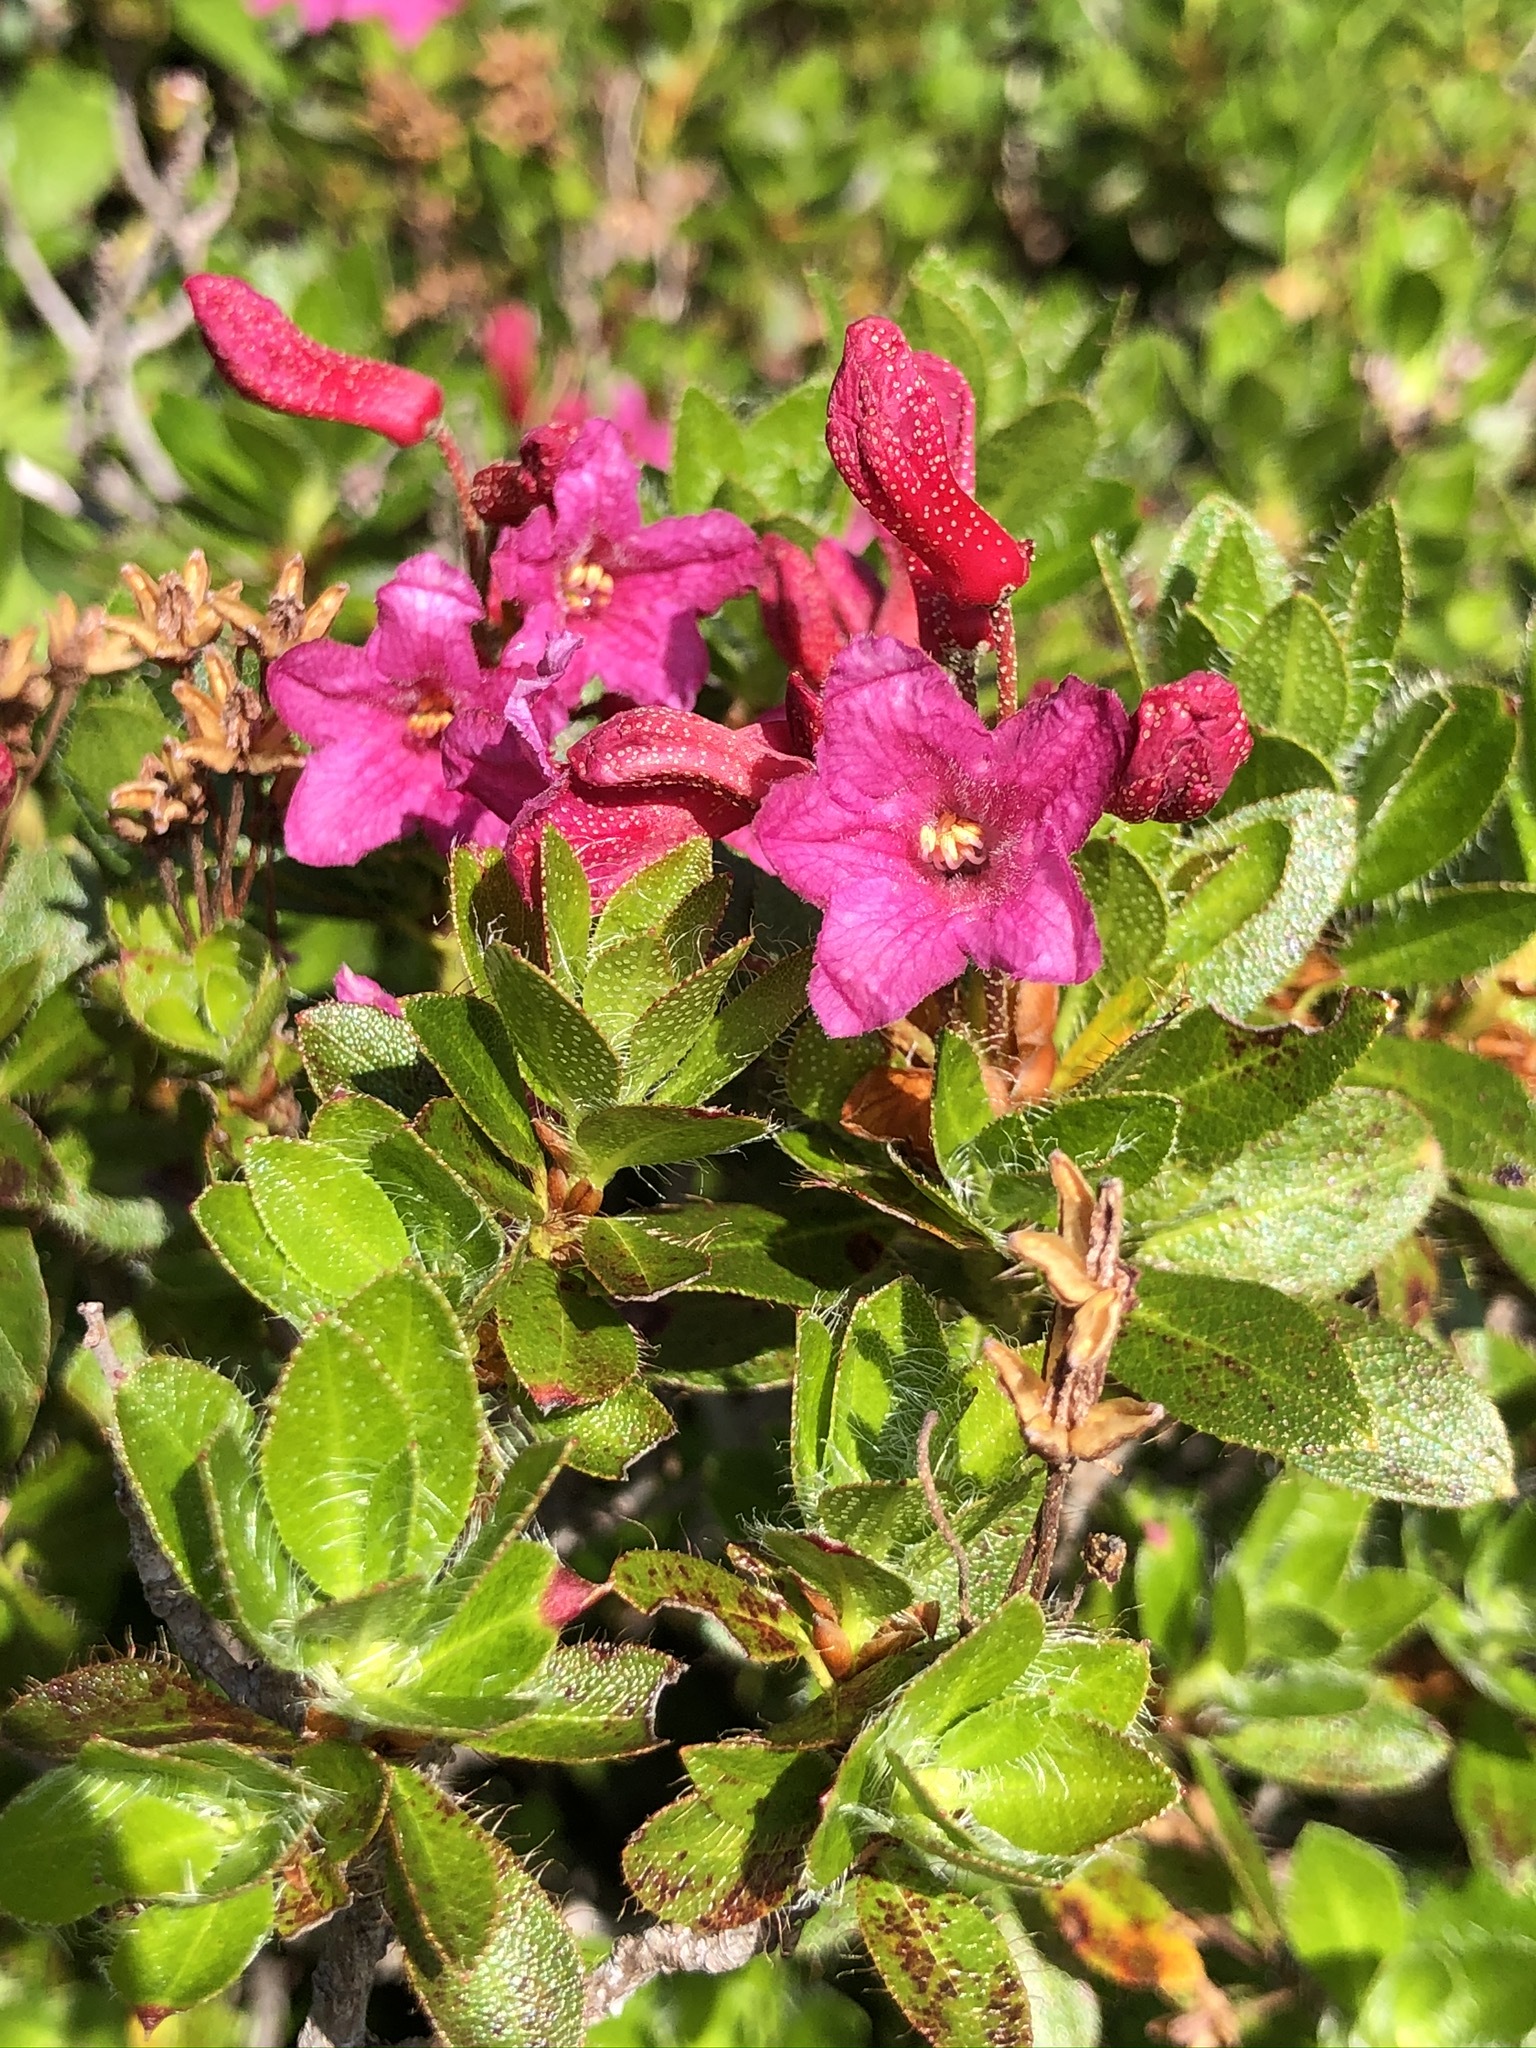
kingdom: Plantae
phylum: Tracheophyta
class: Magnoliopsida
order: Ericales
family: Ericaceae
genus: Rhododendron
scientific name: Rhododendron hirsutum
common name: Hairy alpenrose
